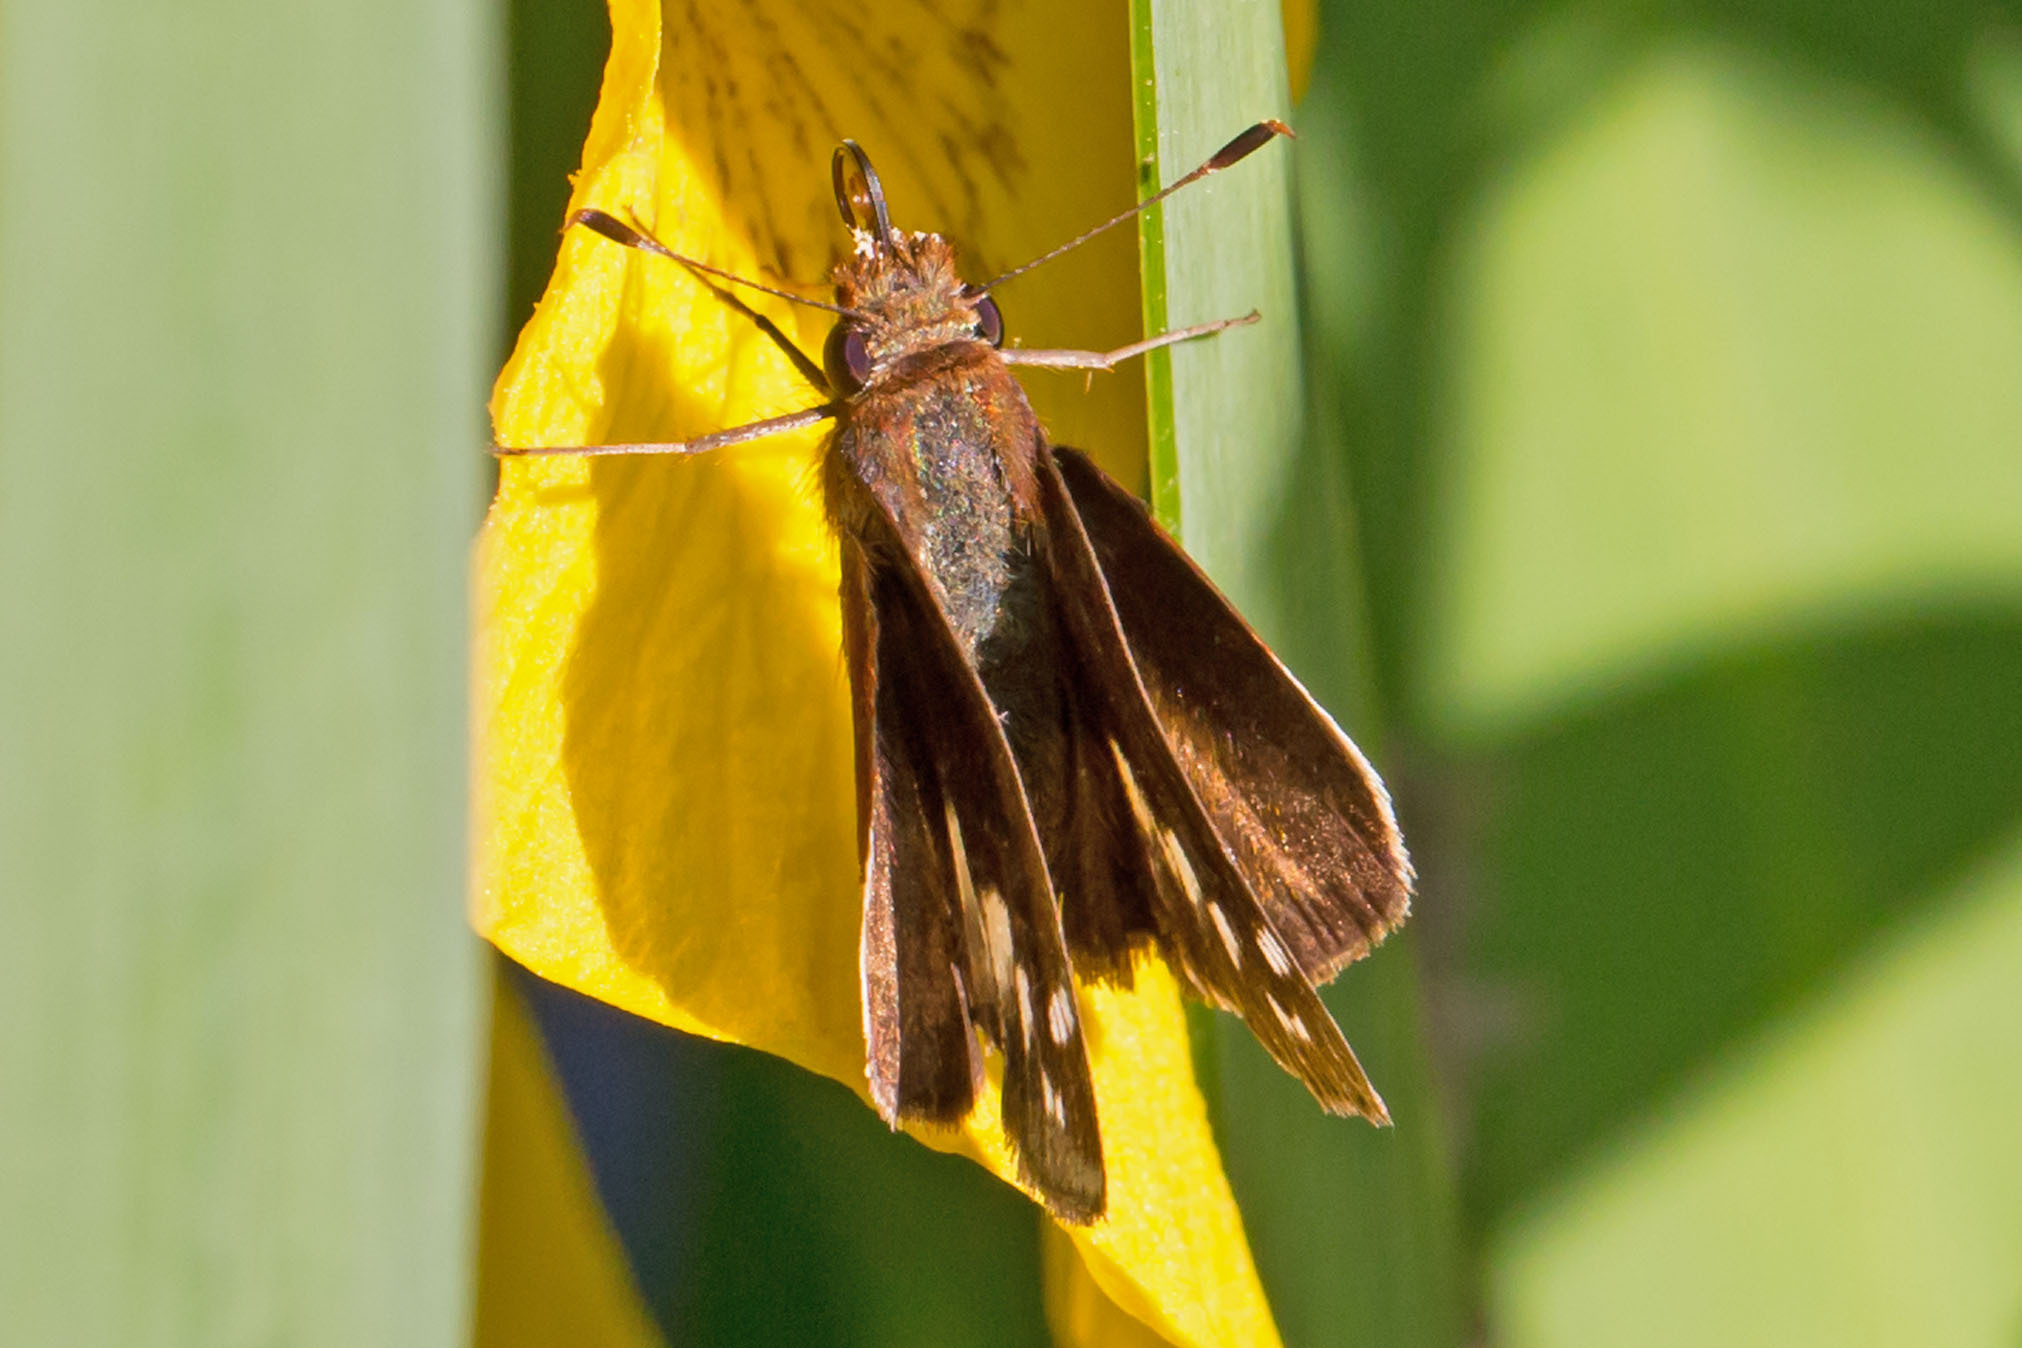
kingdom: Animalia
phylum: Arthropoda
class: Insecta
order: Lepidoptera
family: Hesperiidae
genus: Lon
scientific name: Lon zabulon
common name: Zabulon skipper
